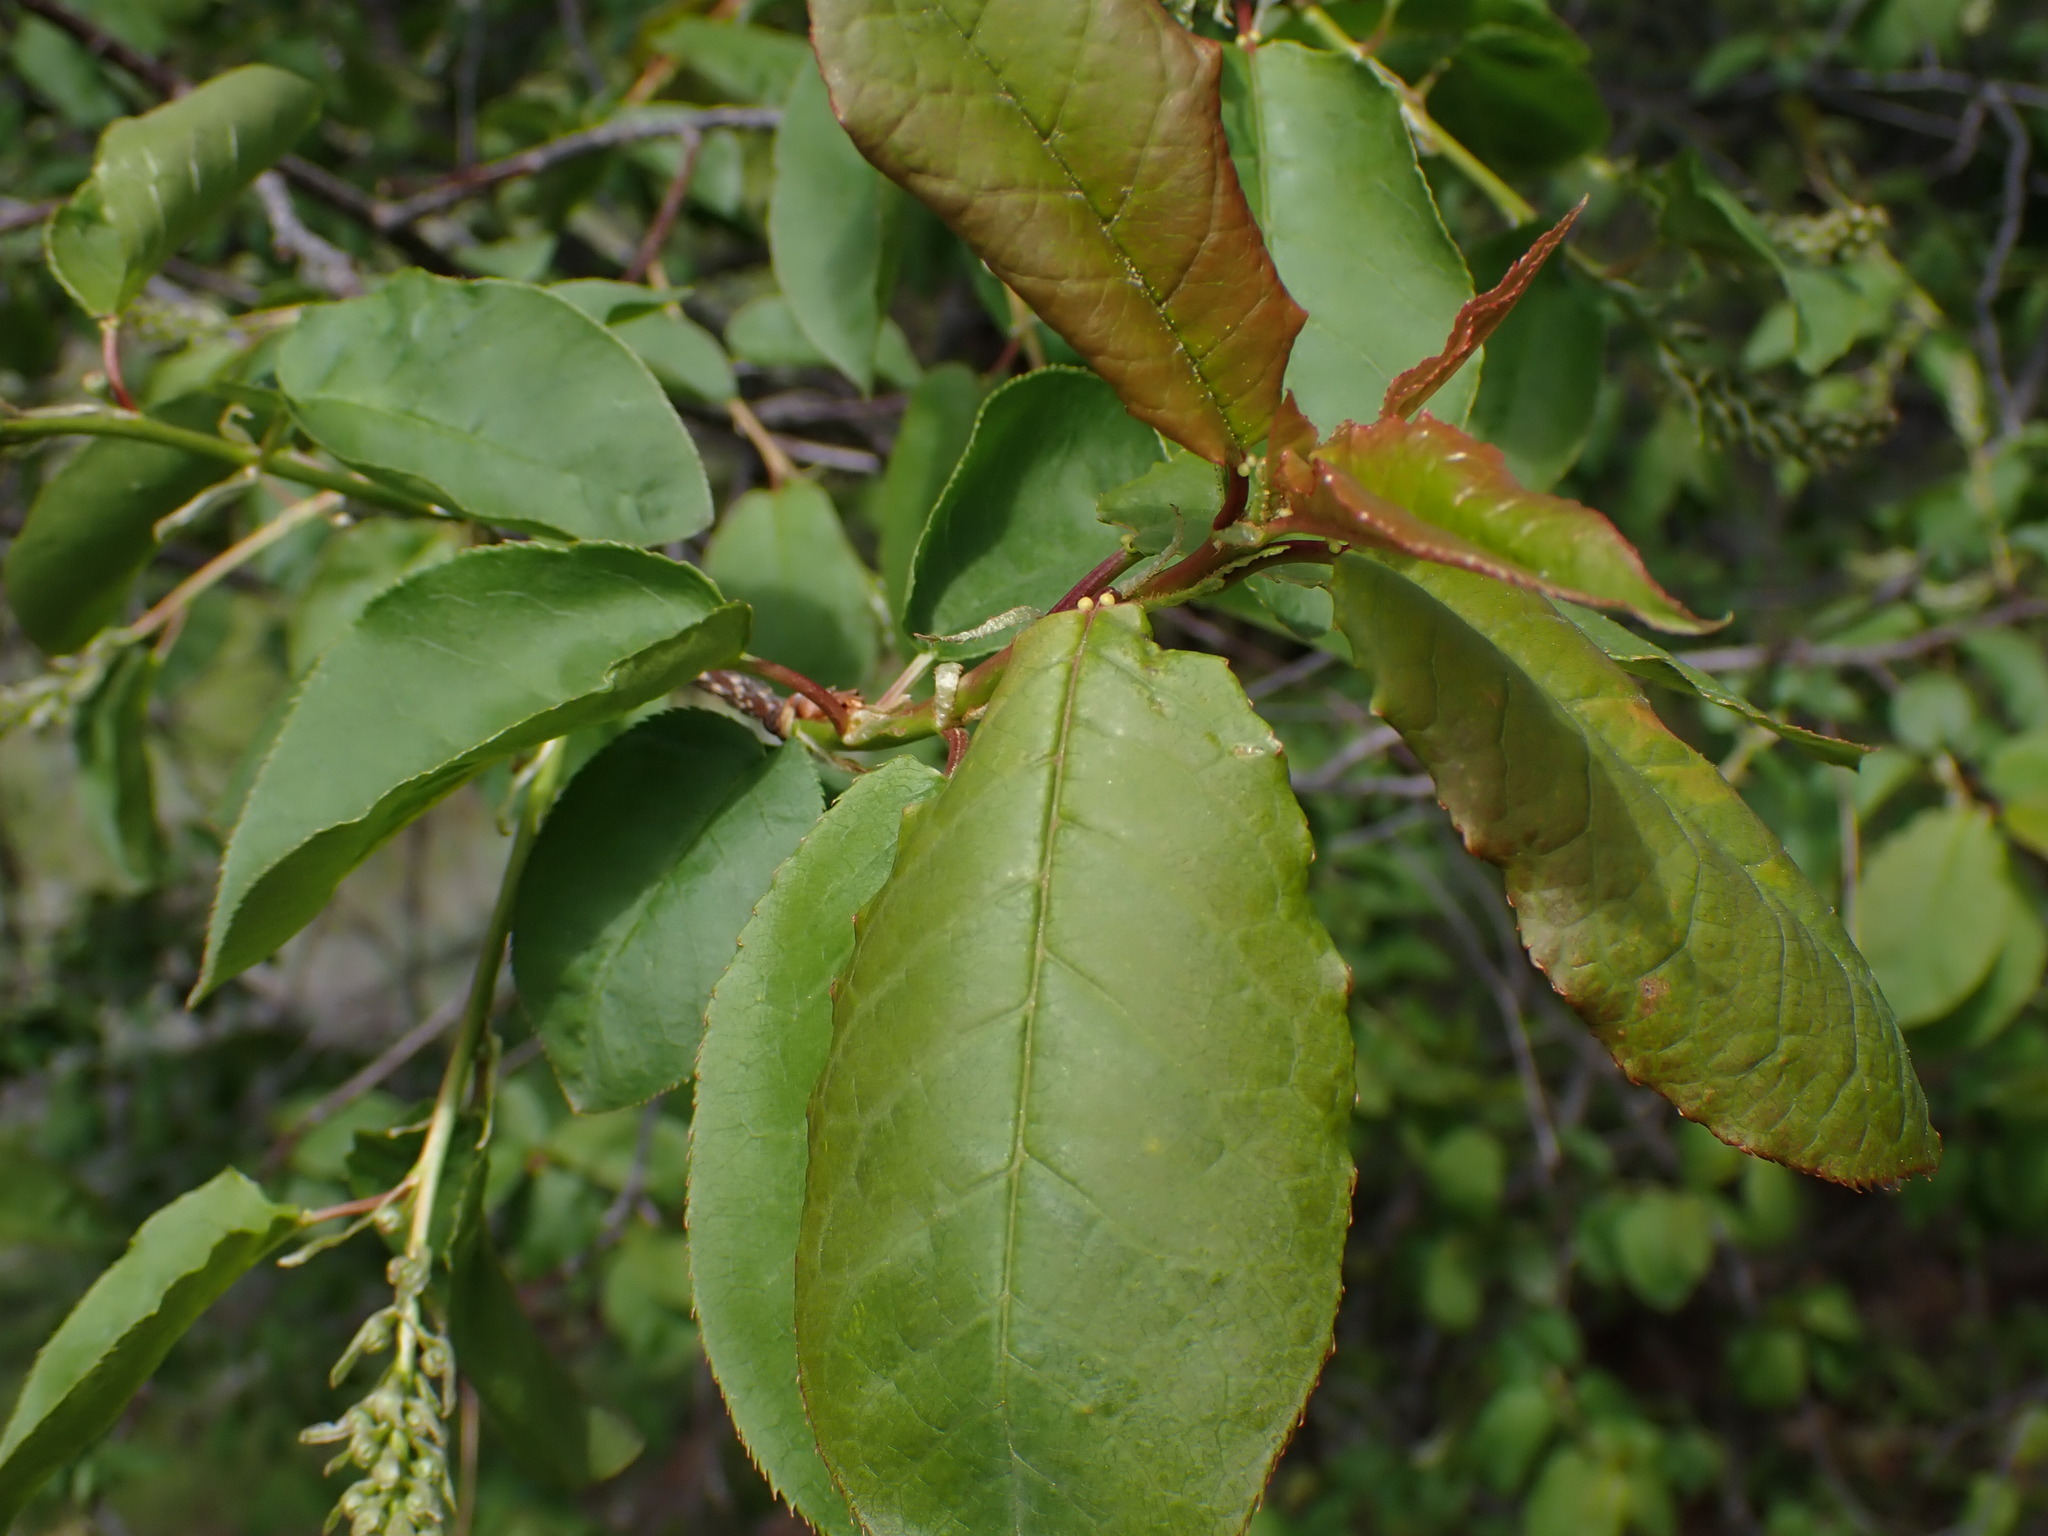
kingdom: Plantae
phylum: Tracheophyta
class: Magnoliopsida
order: Rosales
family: Rosaceae
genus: Prunus
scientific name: Prunus virginiana
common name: Chokecherry
